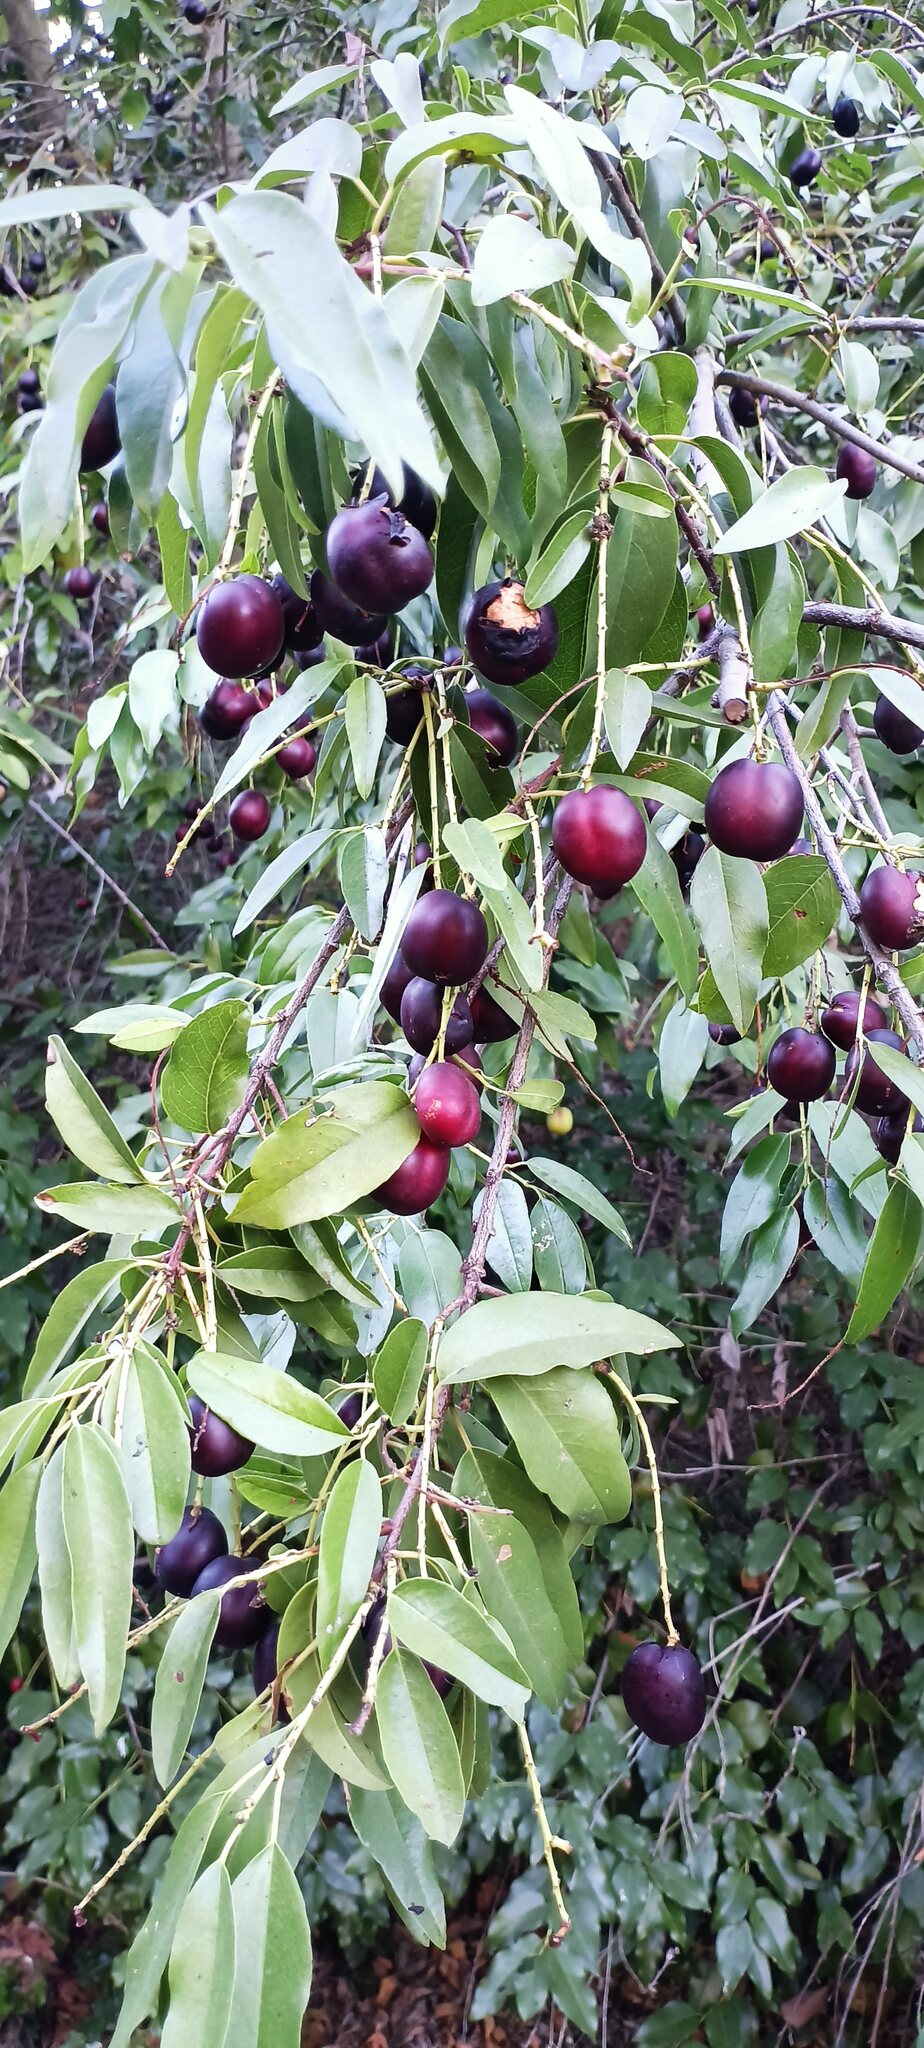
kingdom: Plantae
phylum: Tracheophyta
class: Magnoliopsida
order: Rosales
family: Rosaceae
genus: Prunus
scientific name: Prunus ilicifolia
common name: Hollyleaf cherry
